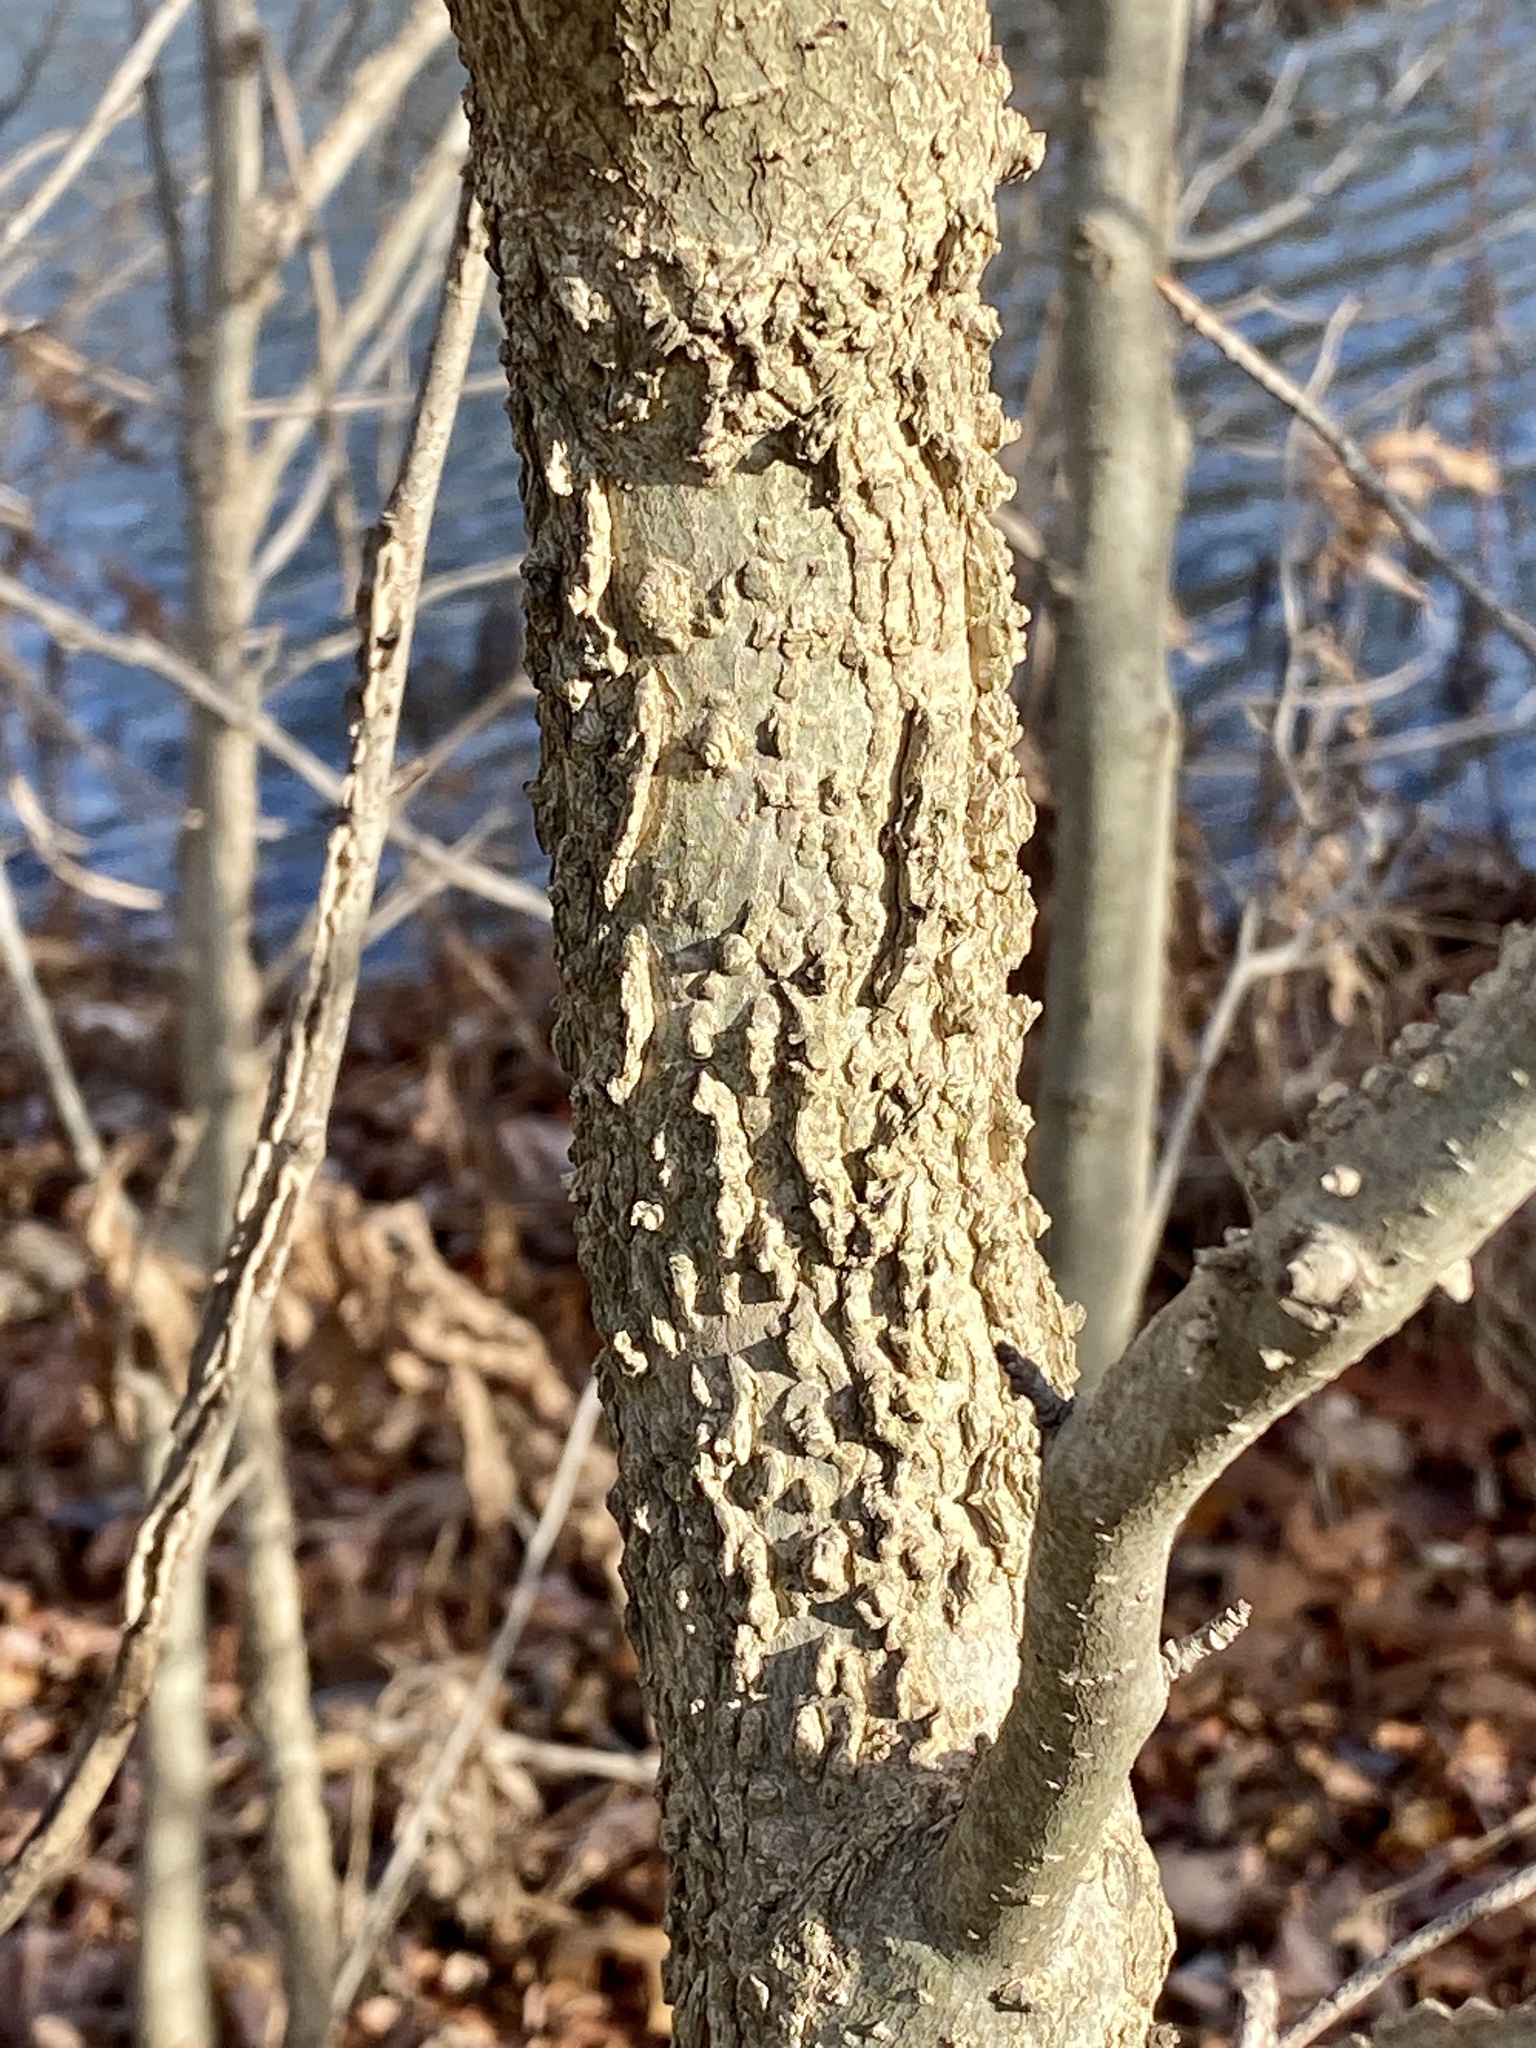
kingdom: Plantae
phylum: Tracheophyta
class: Magnoliopsida
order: Saxifragales
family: Altingiaceae
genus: Liquidambar
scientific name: Liquidambar styraciflua
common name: Sweet gum
